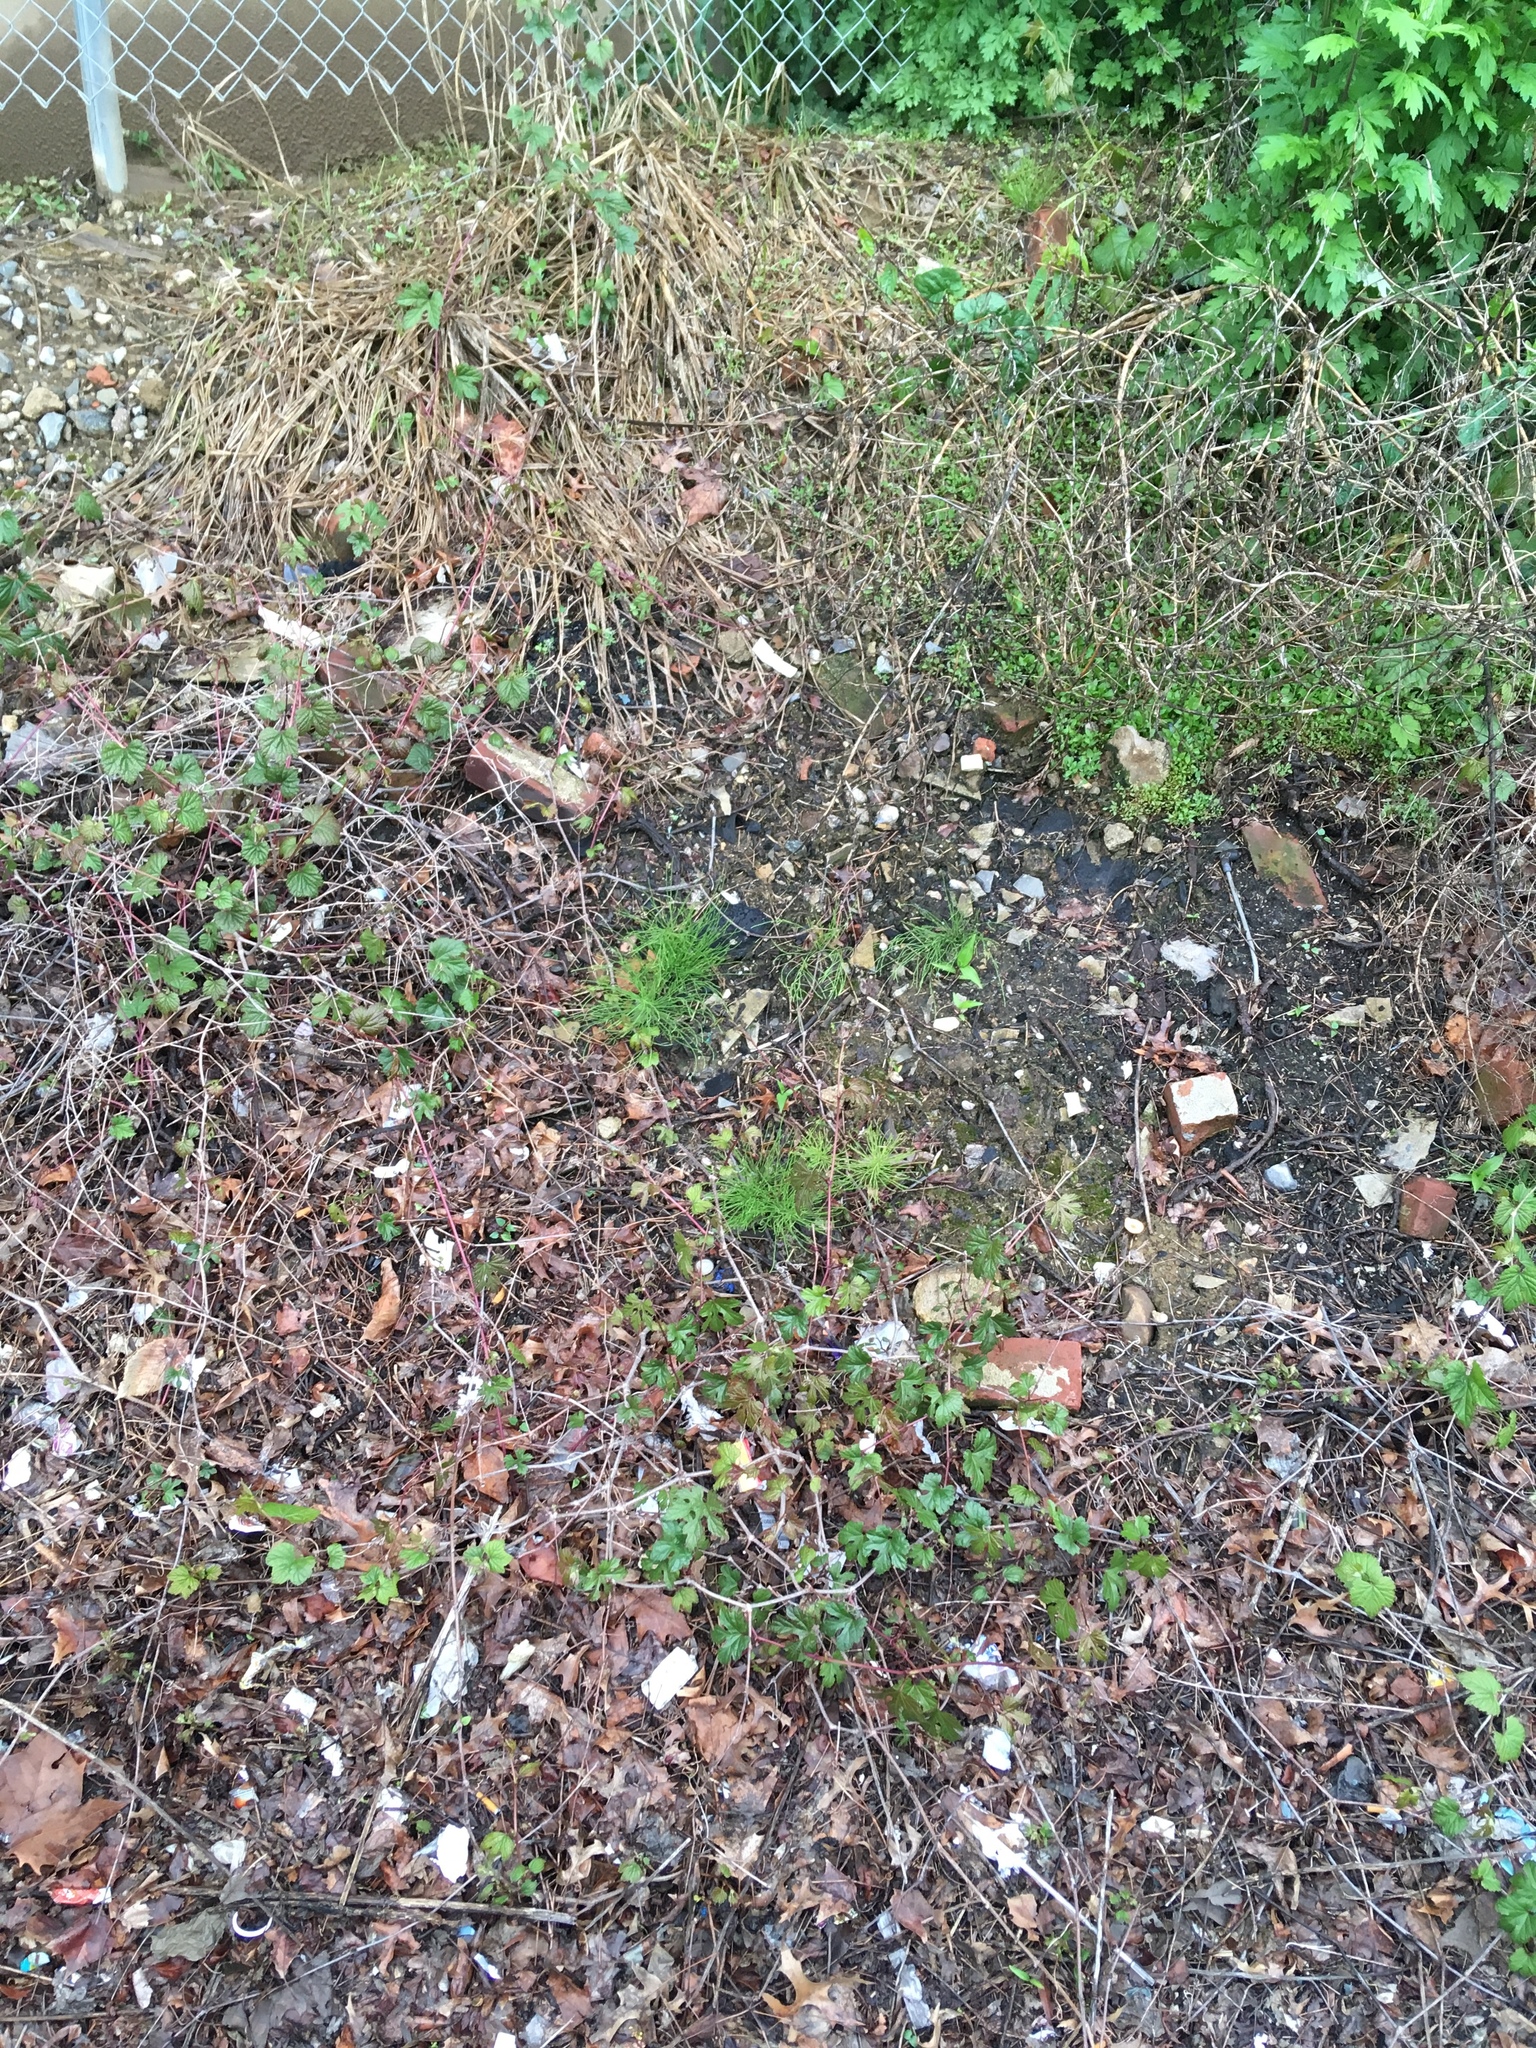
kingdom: Plantae
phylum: Tracheophyta
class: Polypodiopsida
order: Equisetales
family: Equisetaceae
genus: Equisetum
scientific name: Equisetum arvense
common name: Field horsetail
